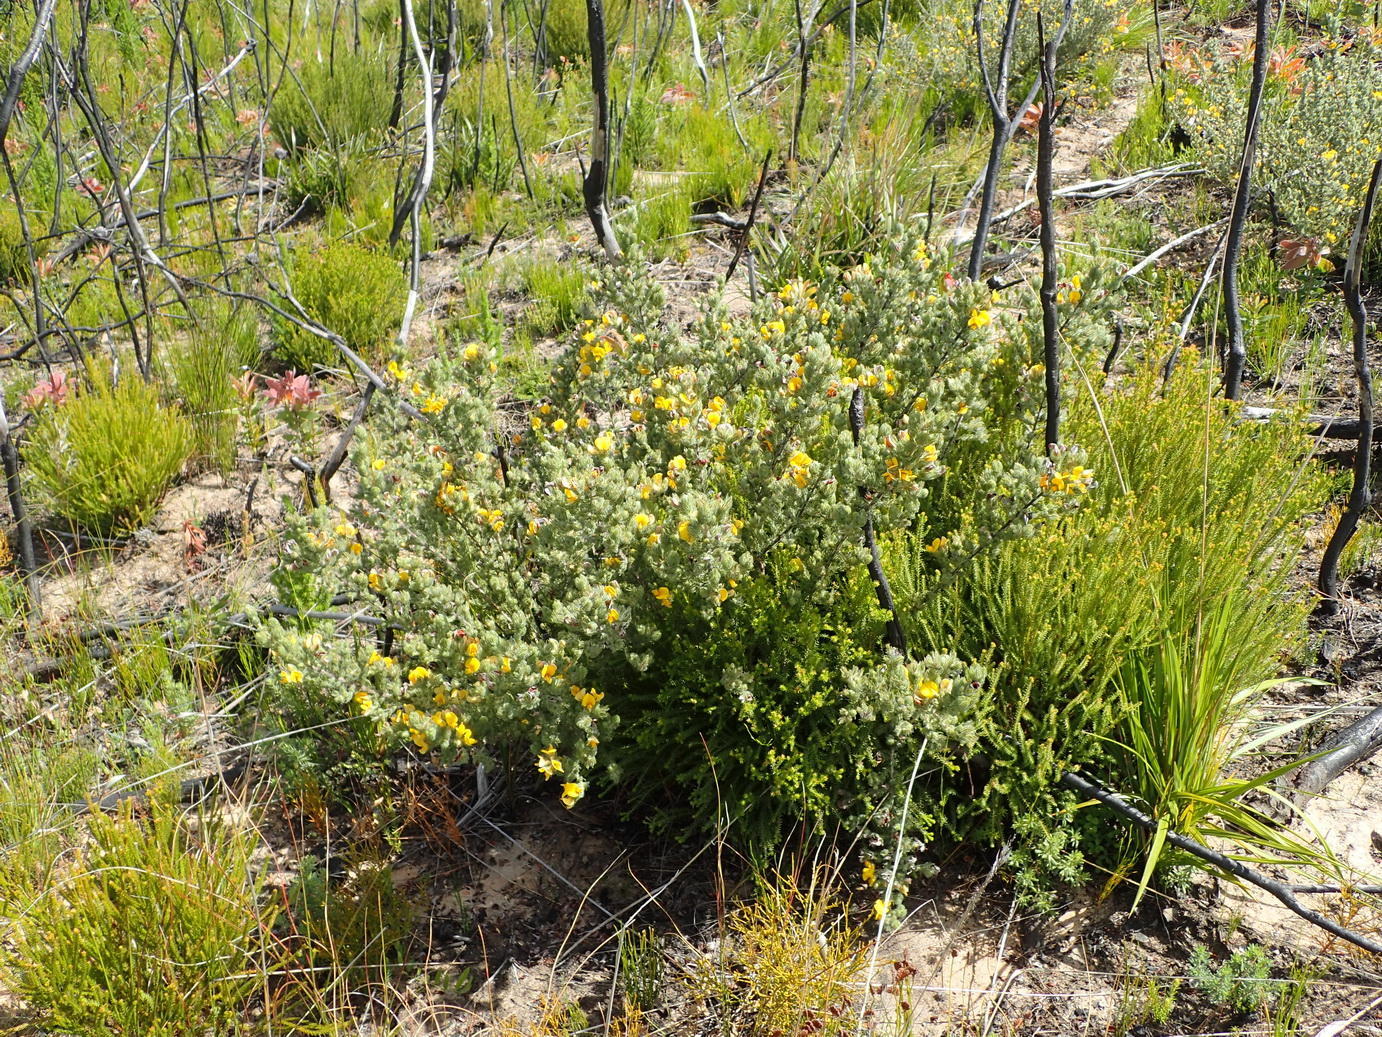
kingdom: Plantae
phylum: Tracheophyta
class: Magnoliopsida
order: Fabales
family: Fabaceae
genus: Aspalathus
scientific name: Aspalathus ciliaris
